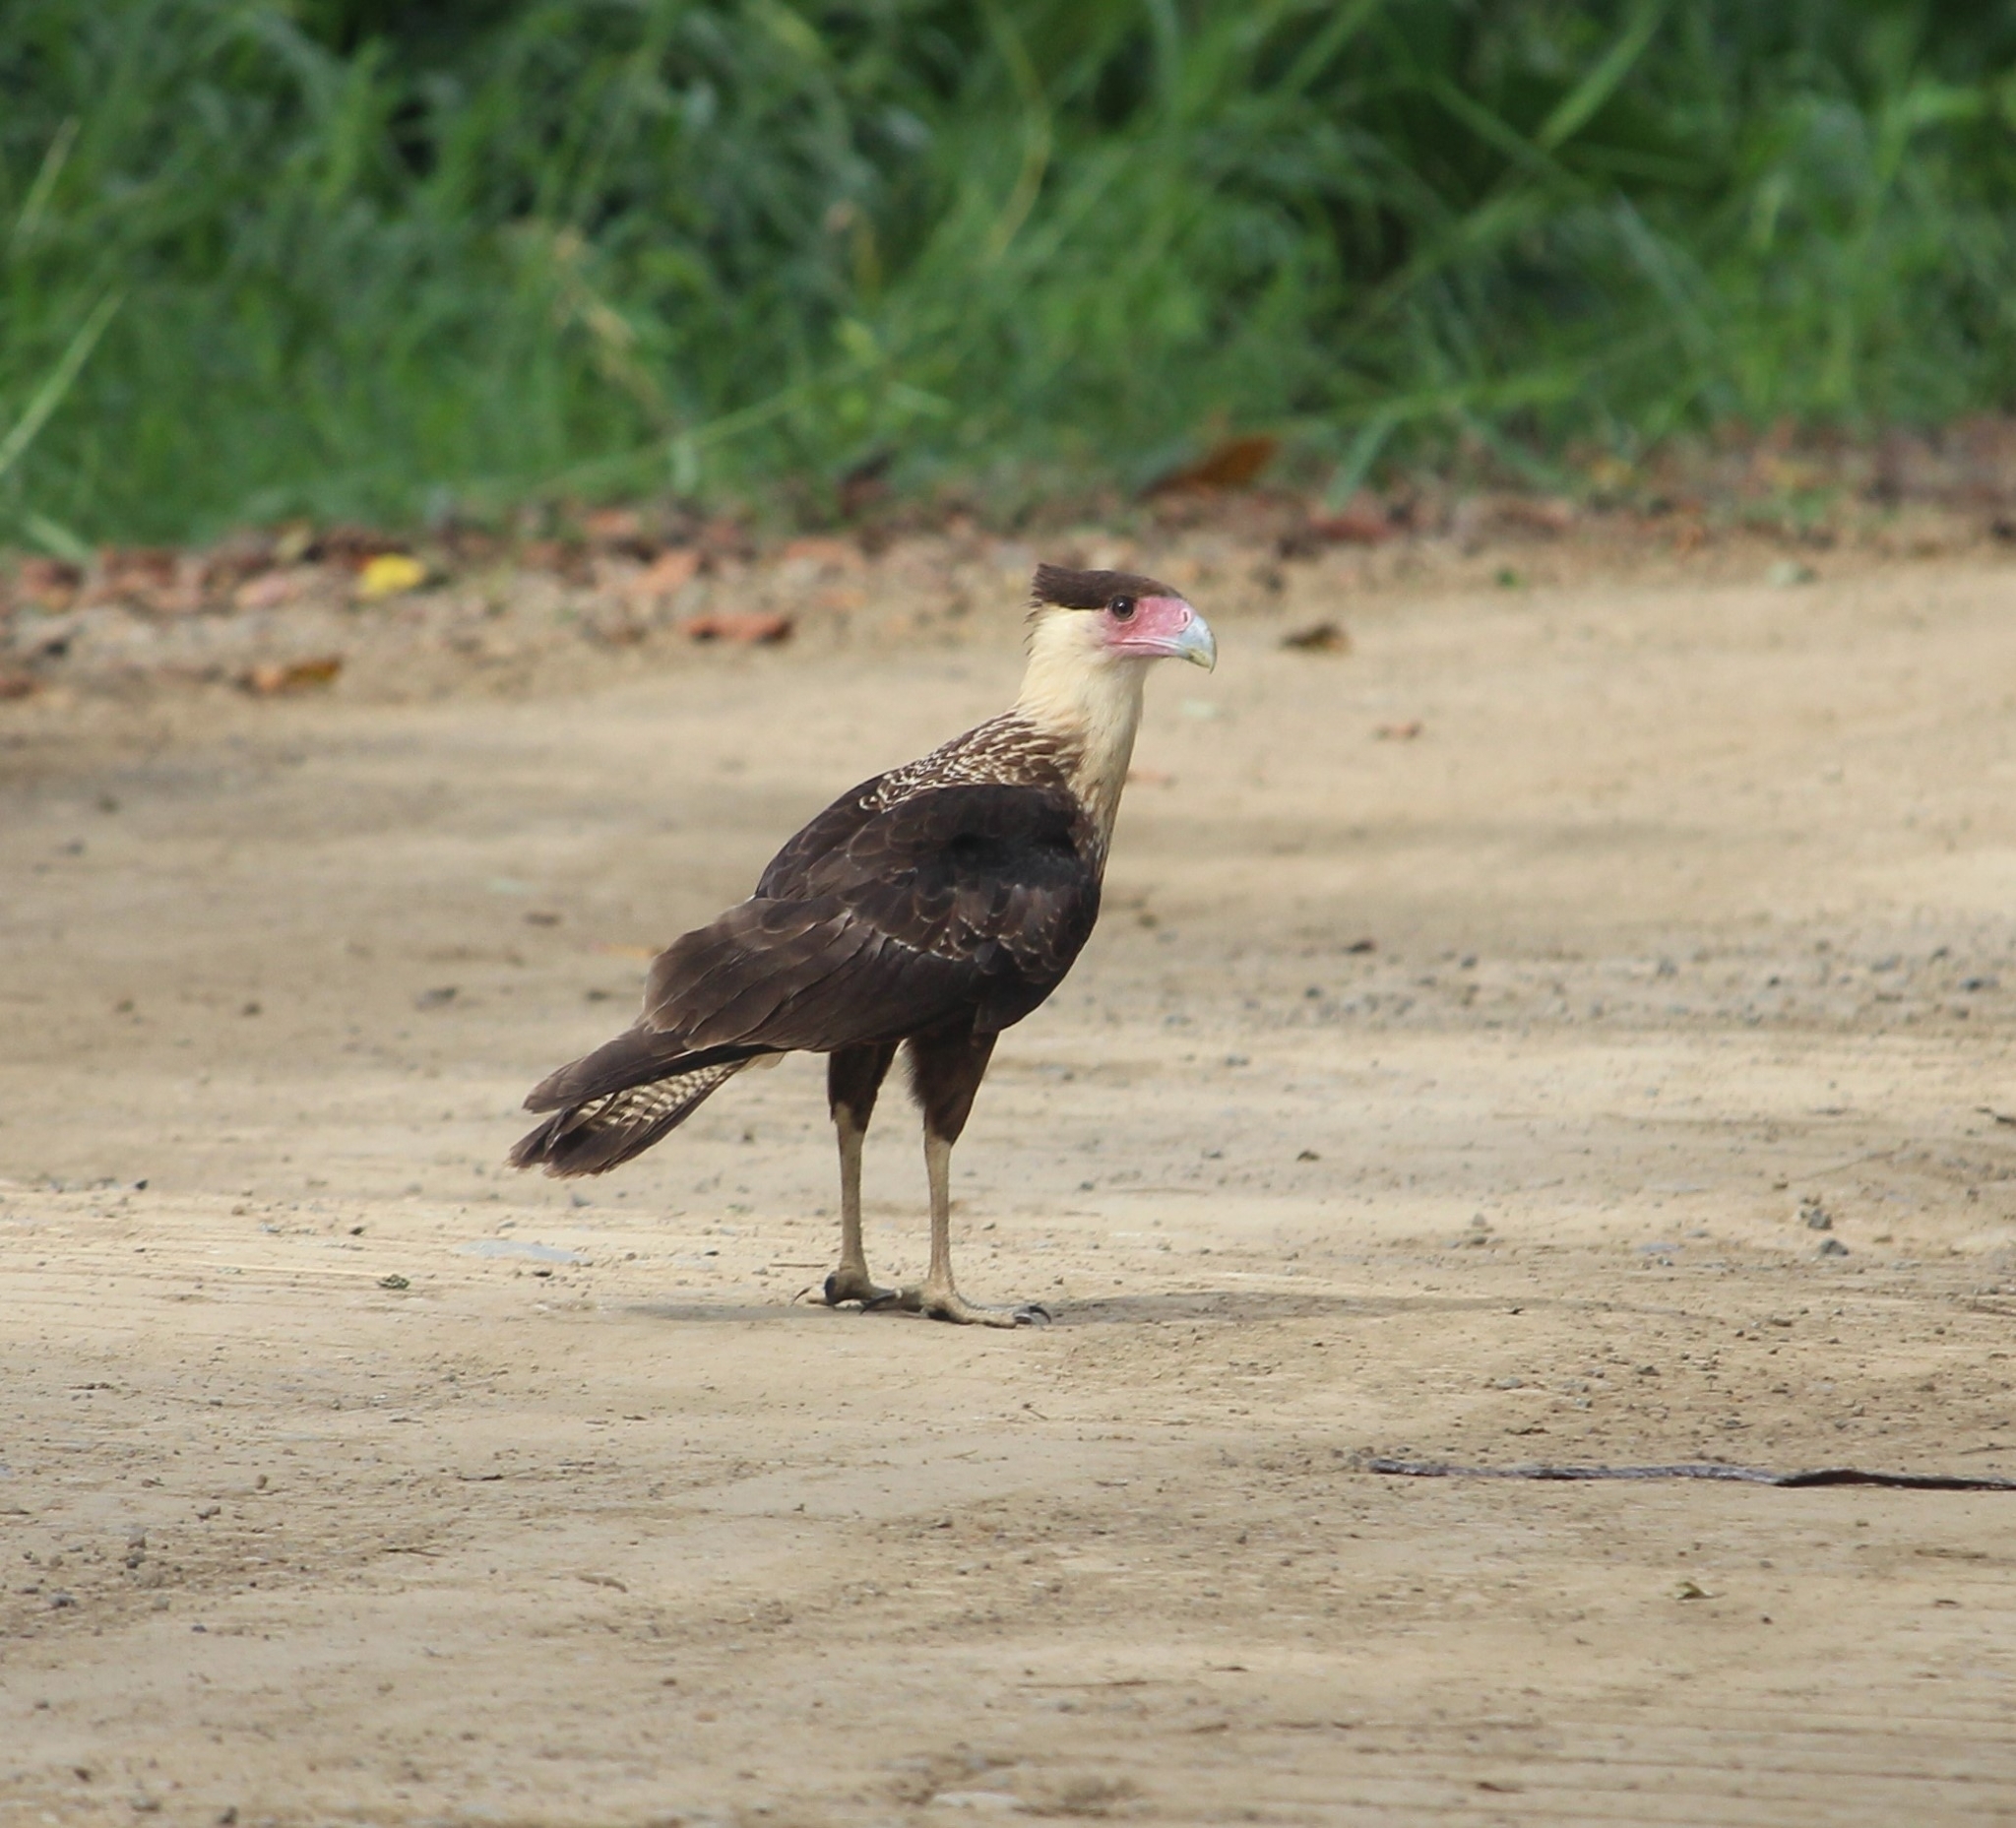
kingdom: Animalia
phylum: Chordata
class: Aves
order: Falconiformes
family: Falconidae
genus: Caracara
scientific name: Caracara plancus
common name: Southern caracara
